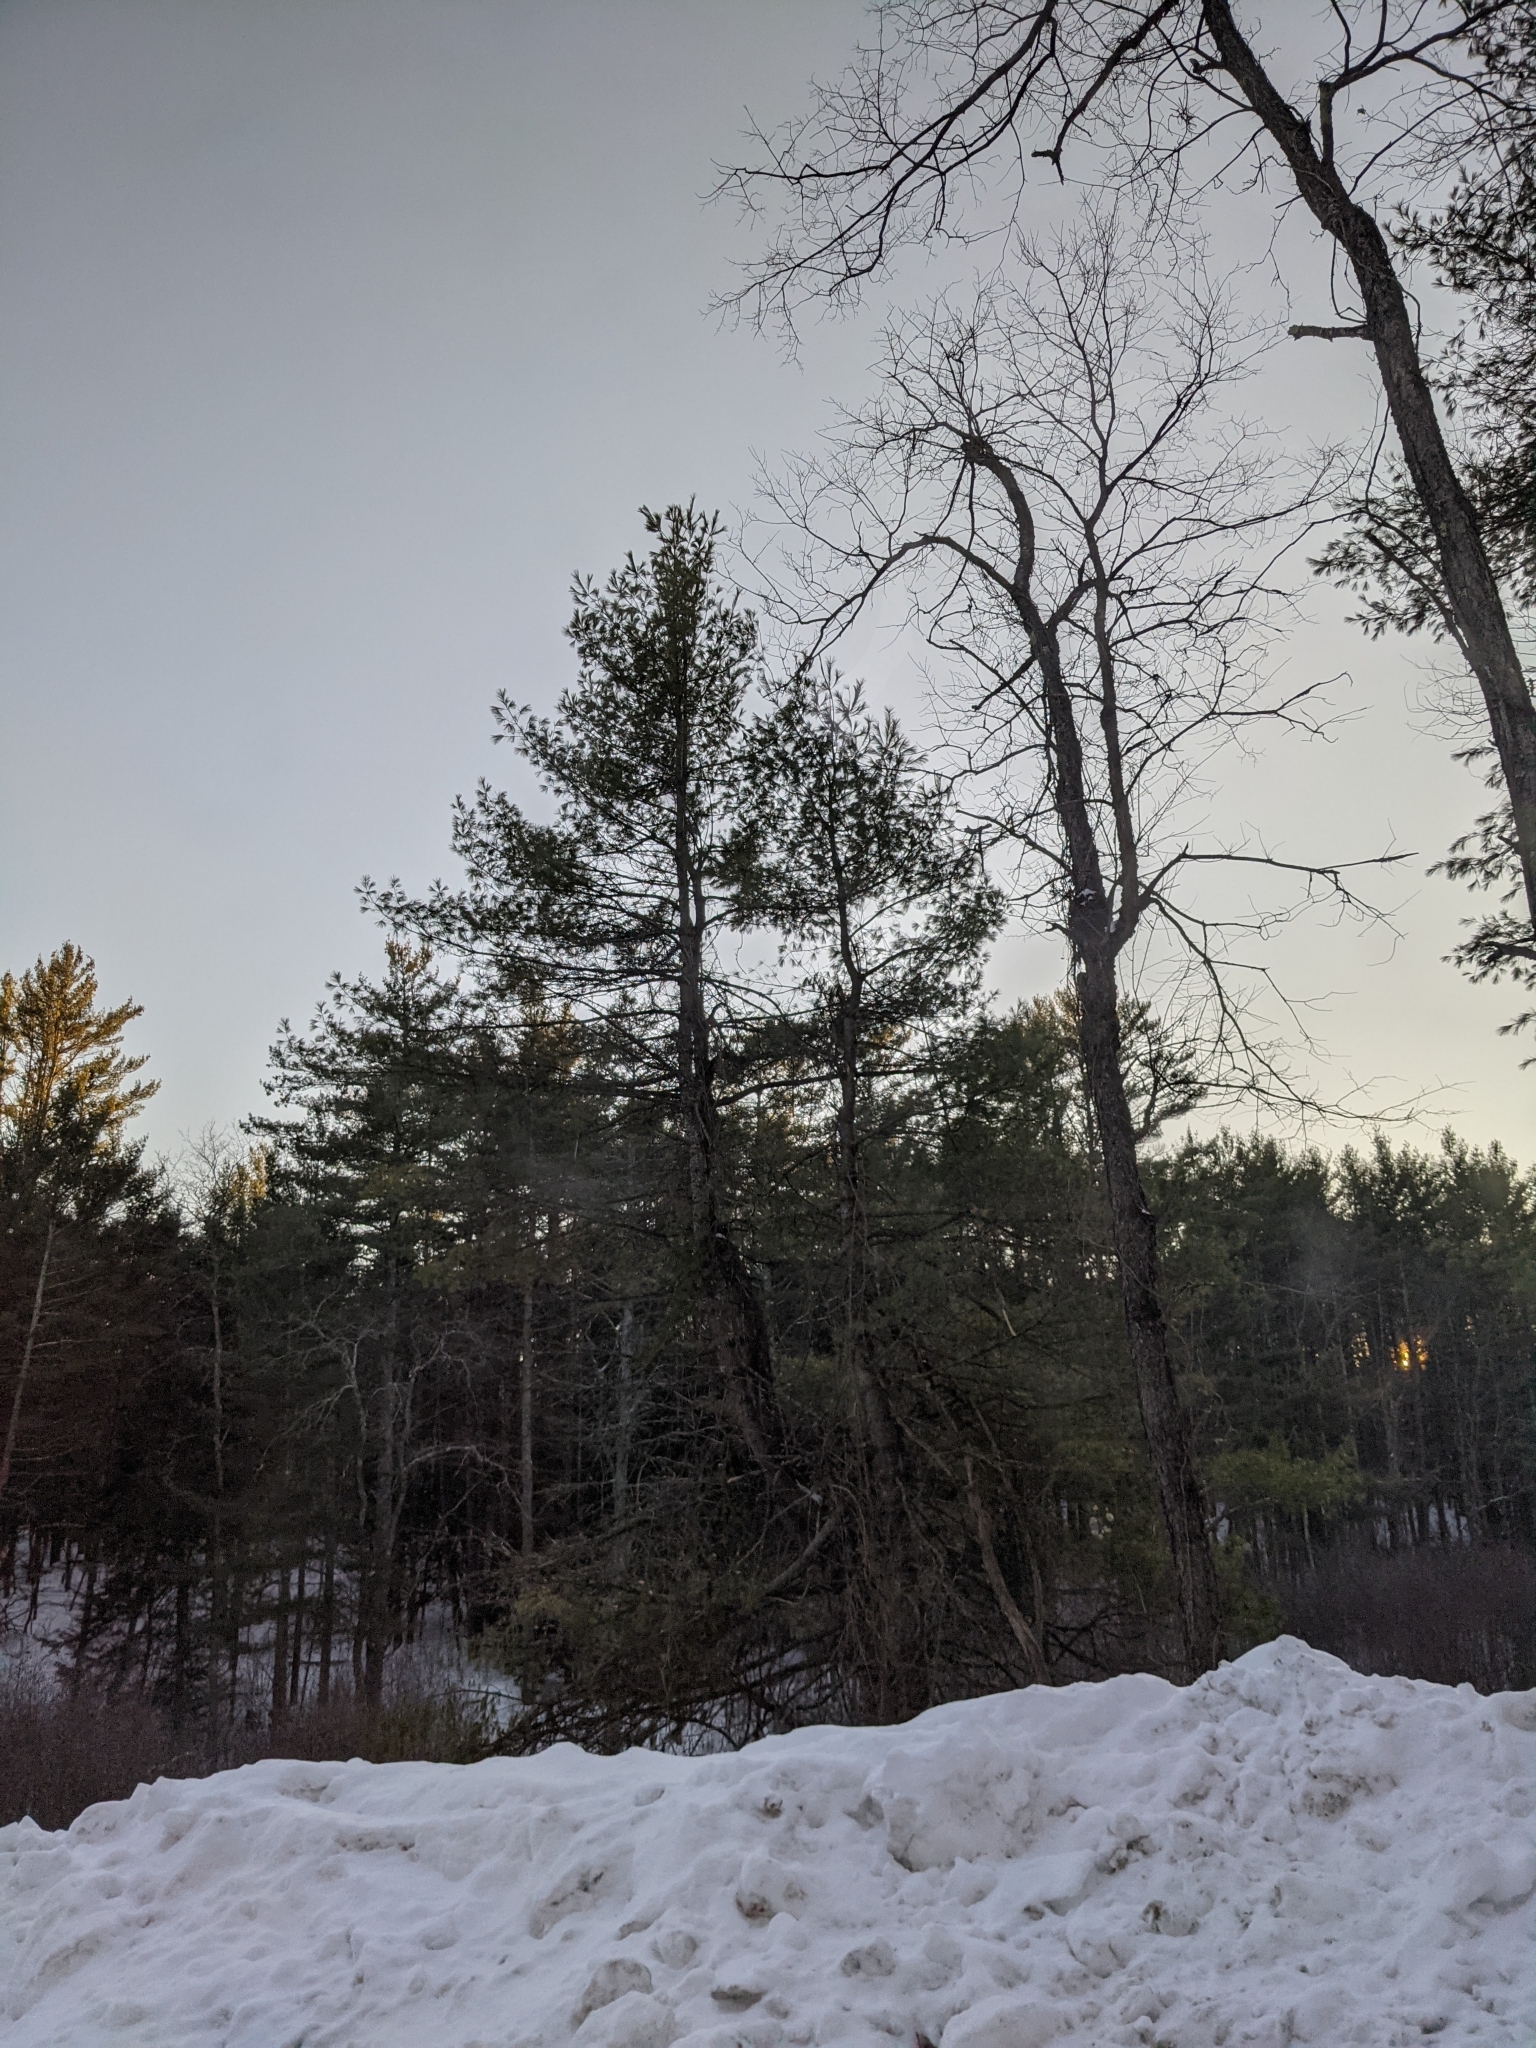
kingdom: Plantae
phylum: Tracheophyta
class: Pinopsida
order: Pinales
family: Pinaceae
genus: Pinus
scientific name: Pinus strobus
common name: Weymouth pine
